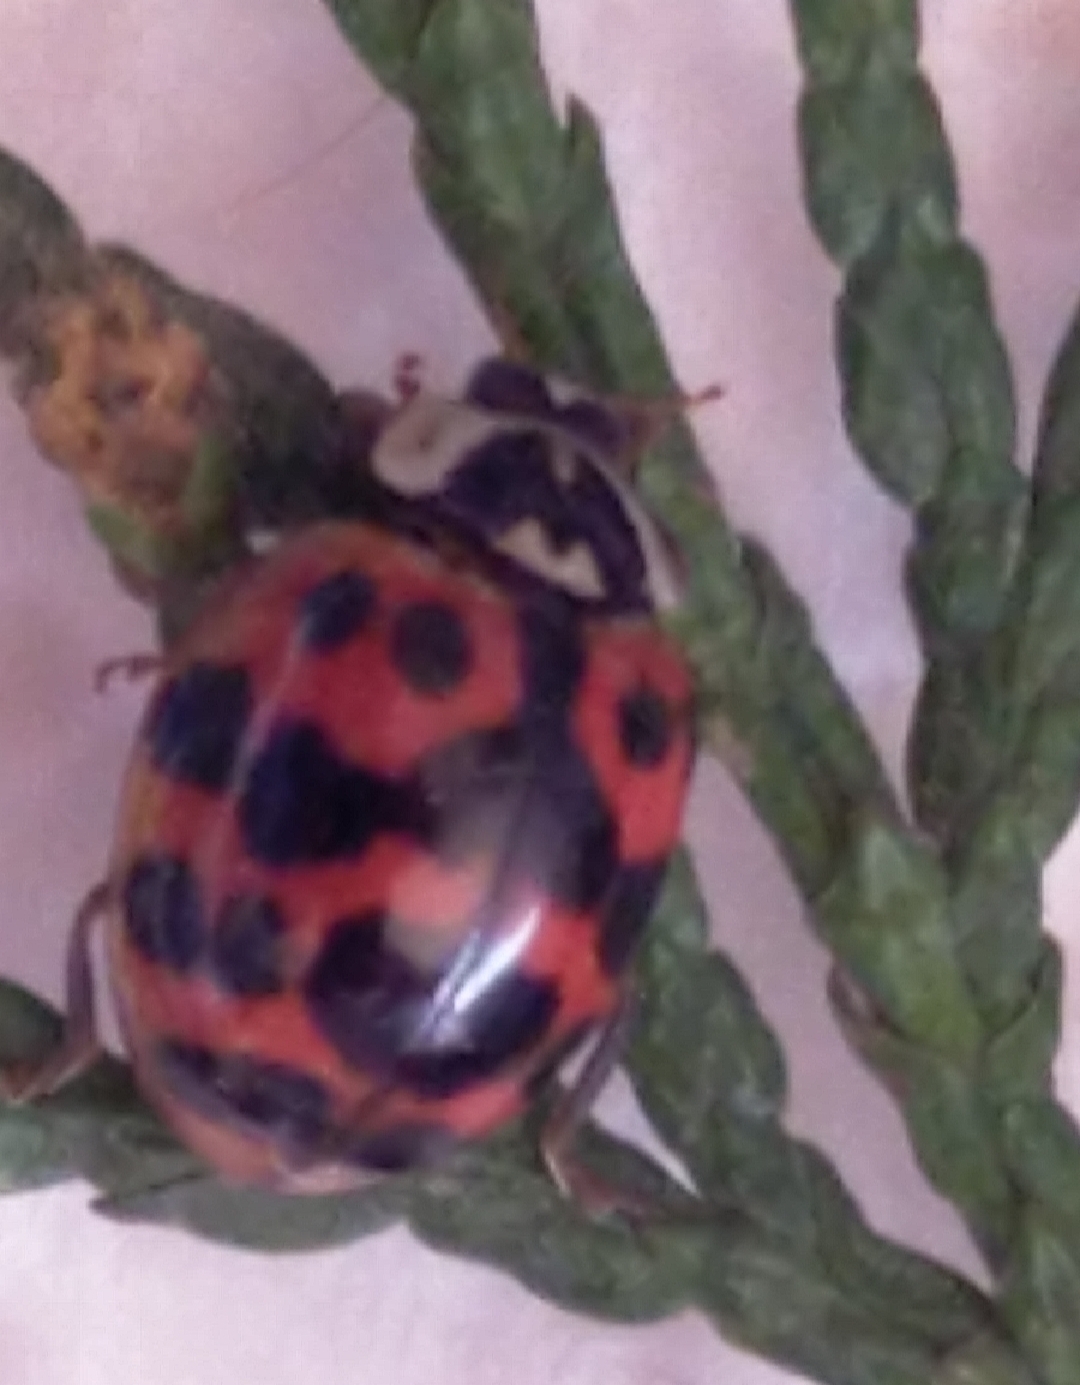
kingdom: Animalia
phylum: Arthropoda
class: Insecta
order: Coleoptera
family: Coccinellidae
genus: Harmonia
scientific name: Harmonia axyridis
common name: Harlequin ladybird
